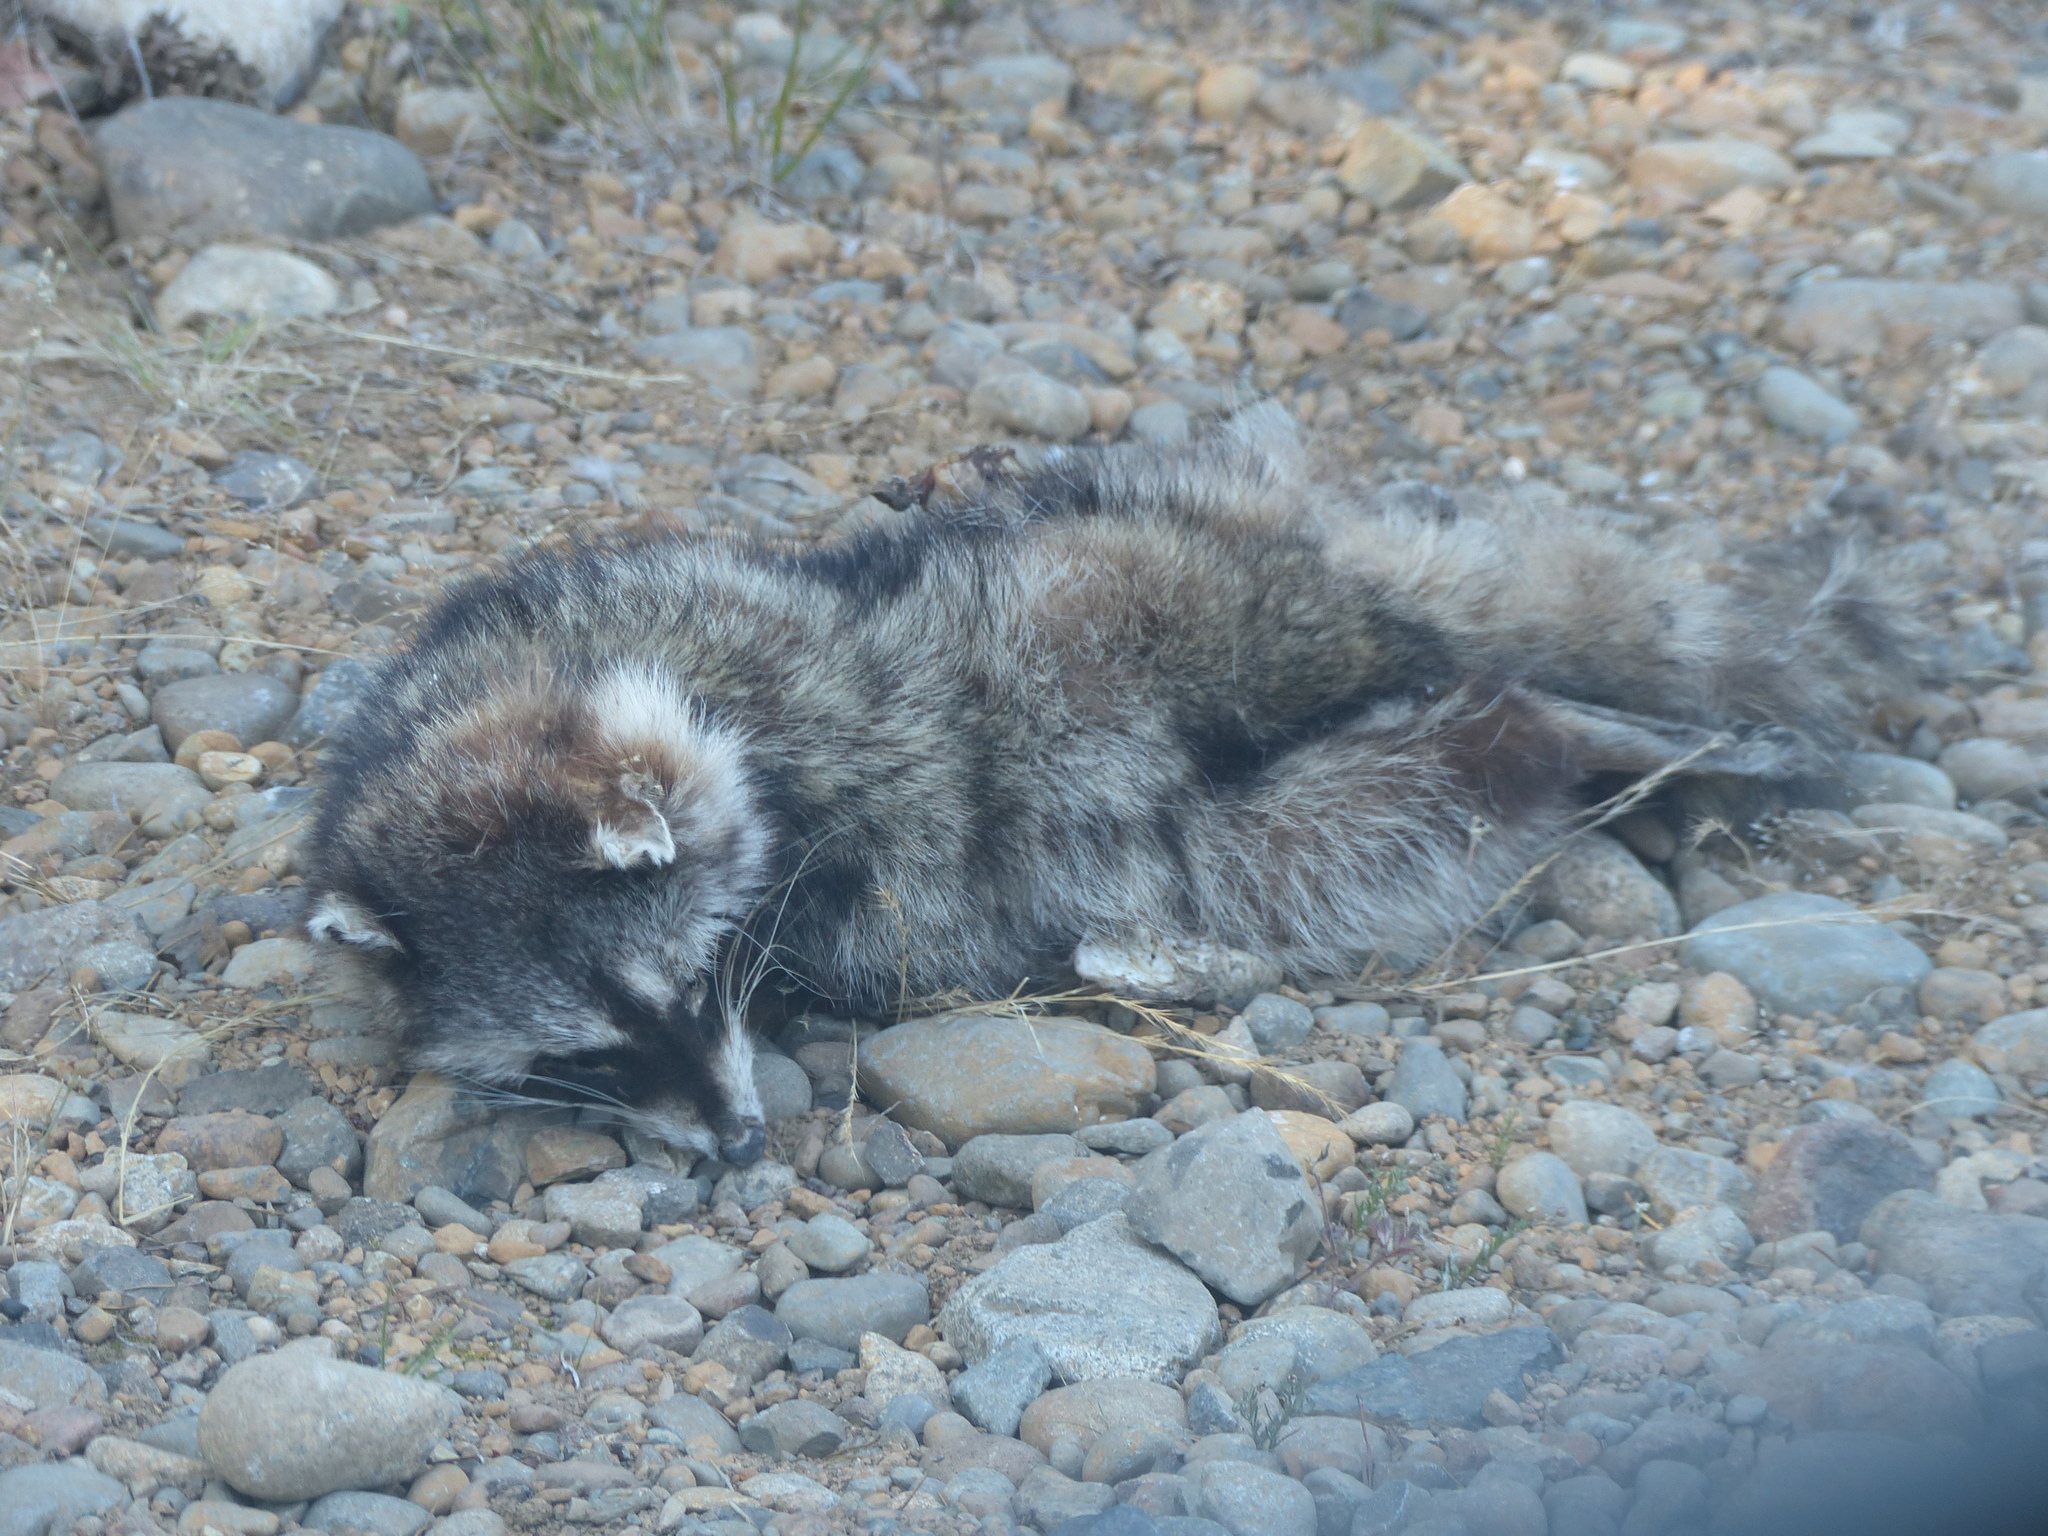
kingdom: Animalia
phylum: Chordata
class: Mammalia
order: Carnivora
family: Procyonidae
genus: Procyon
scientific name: Procyon lotor
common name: Raccoon
